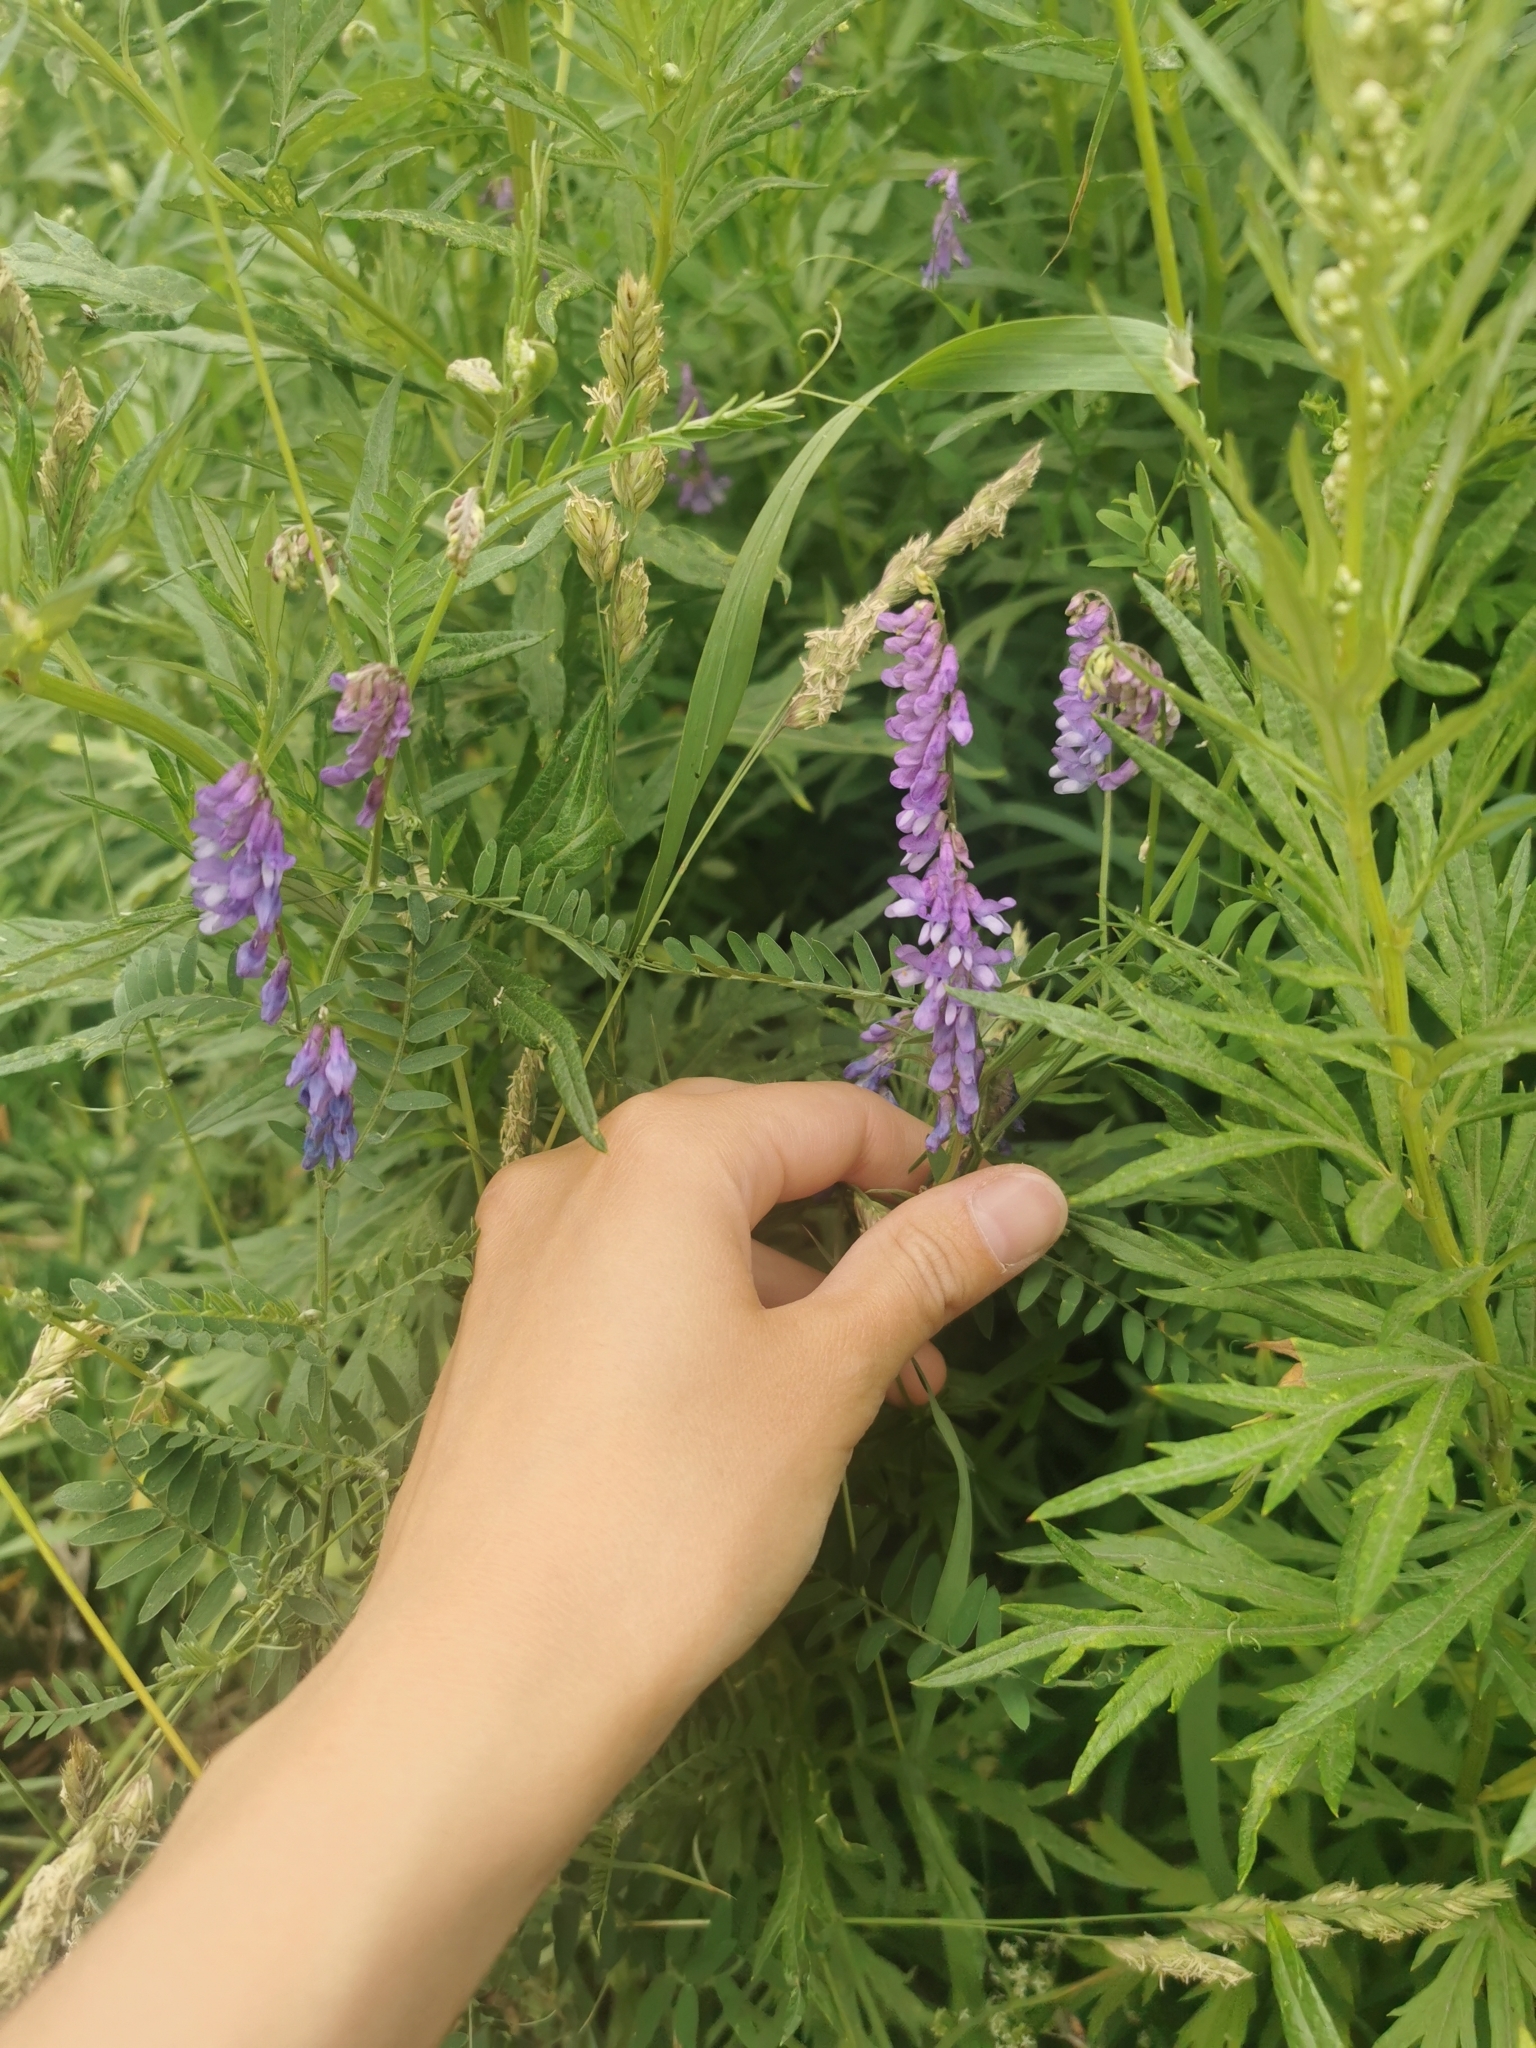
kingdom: Plantae
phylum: Tracheophyta
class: Magnoliopsida
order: Fabales
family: Fabaceae
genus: Vicia
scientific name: Vicia cracca
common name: Bird vetch
